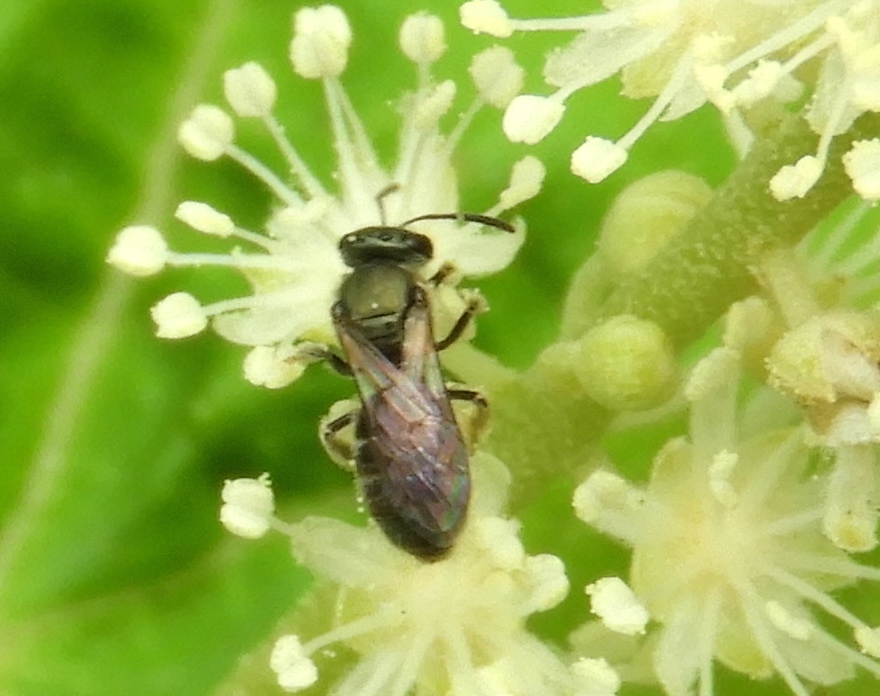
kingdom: Animalia
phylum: Arthropoda
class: Insecta
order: Hymenoptera
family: Halictidae
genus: Dialictus
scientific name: Dialictus
